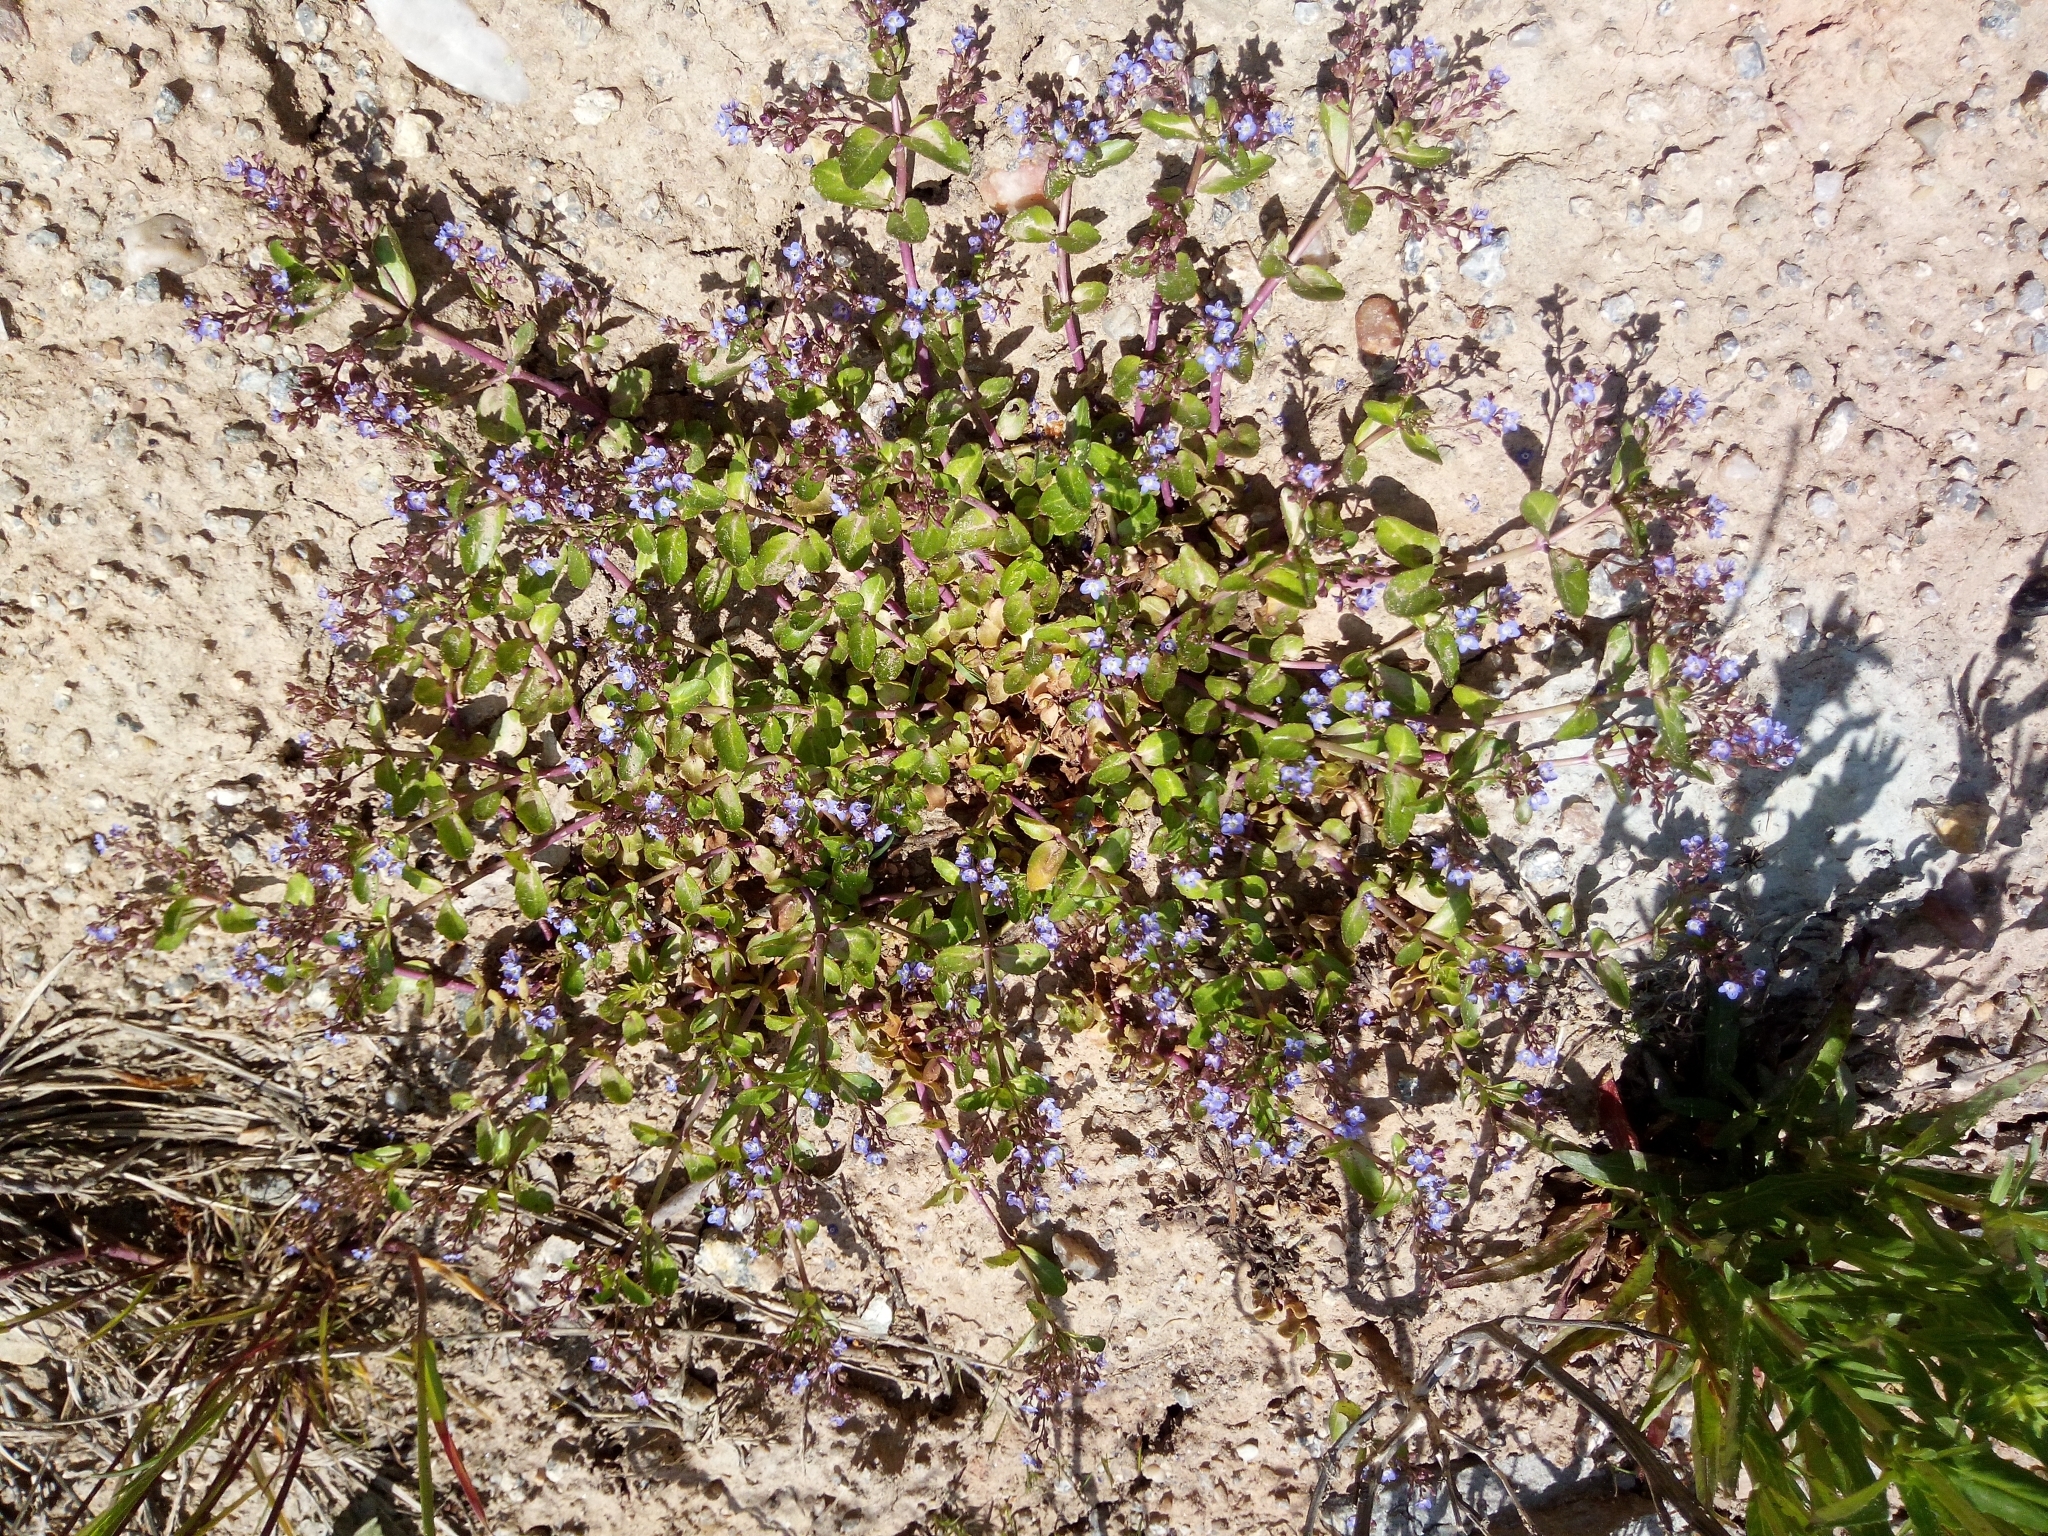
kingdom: Plantae
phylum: Tracheophyta
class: Magnoliopsida
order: Lamiales
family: Plantaginaceae
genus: Veronica
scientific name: Veronica beccabunga
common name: Brooklime
